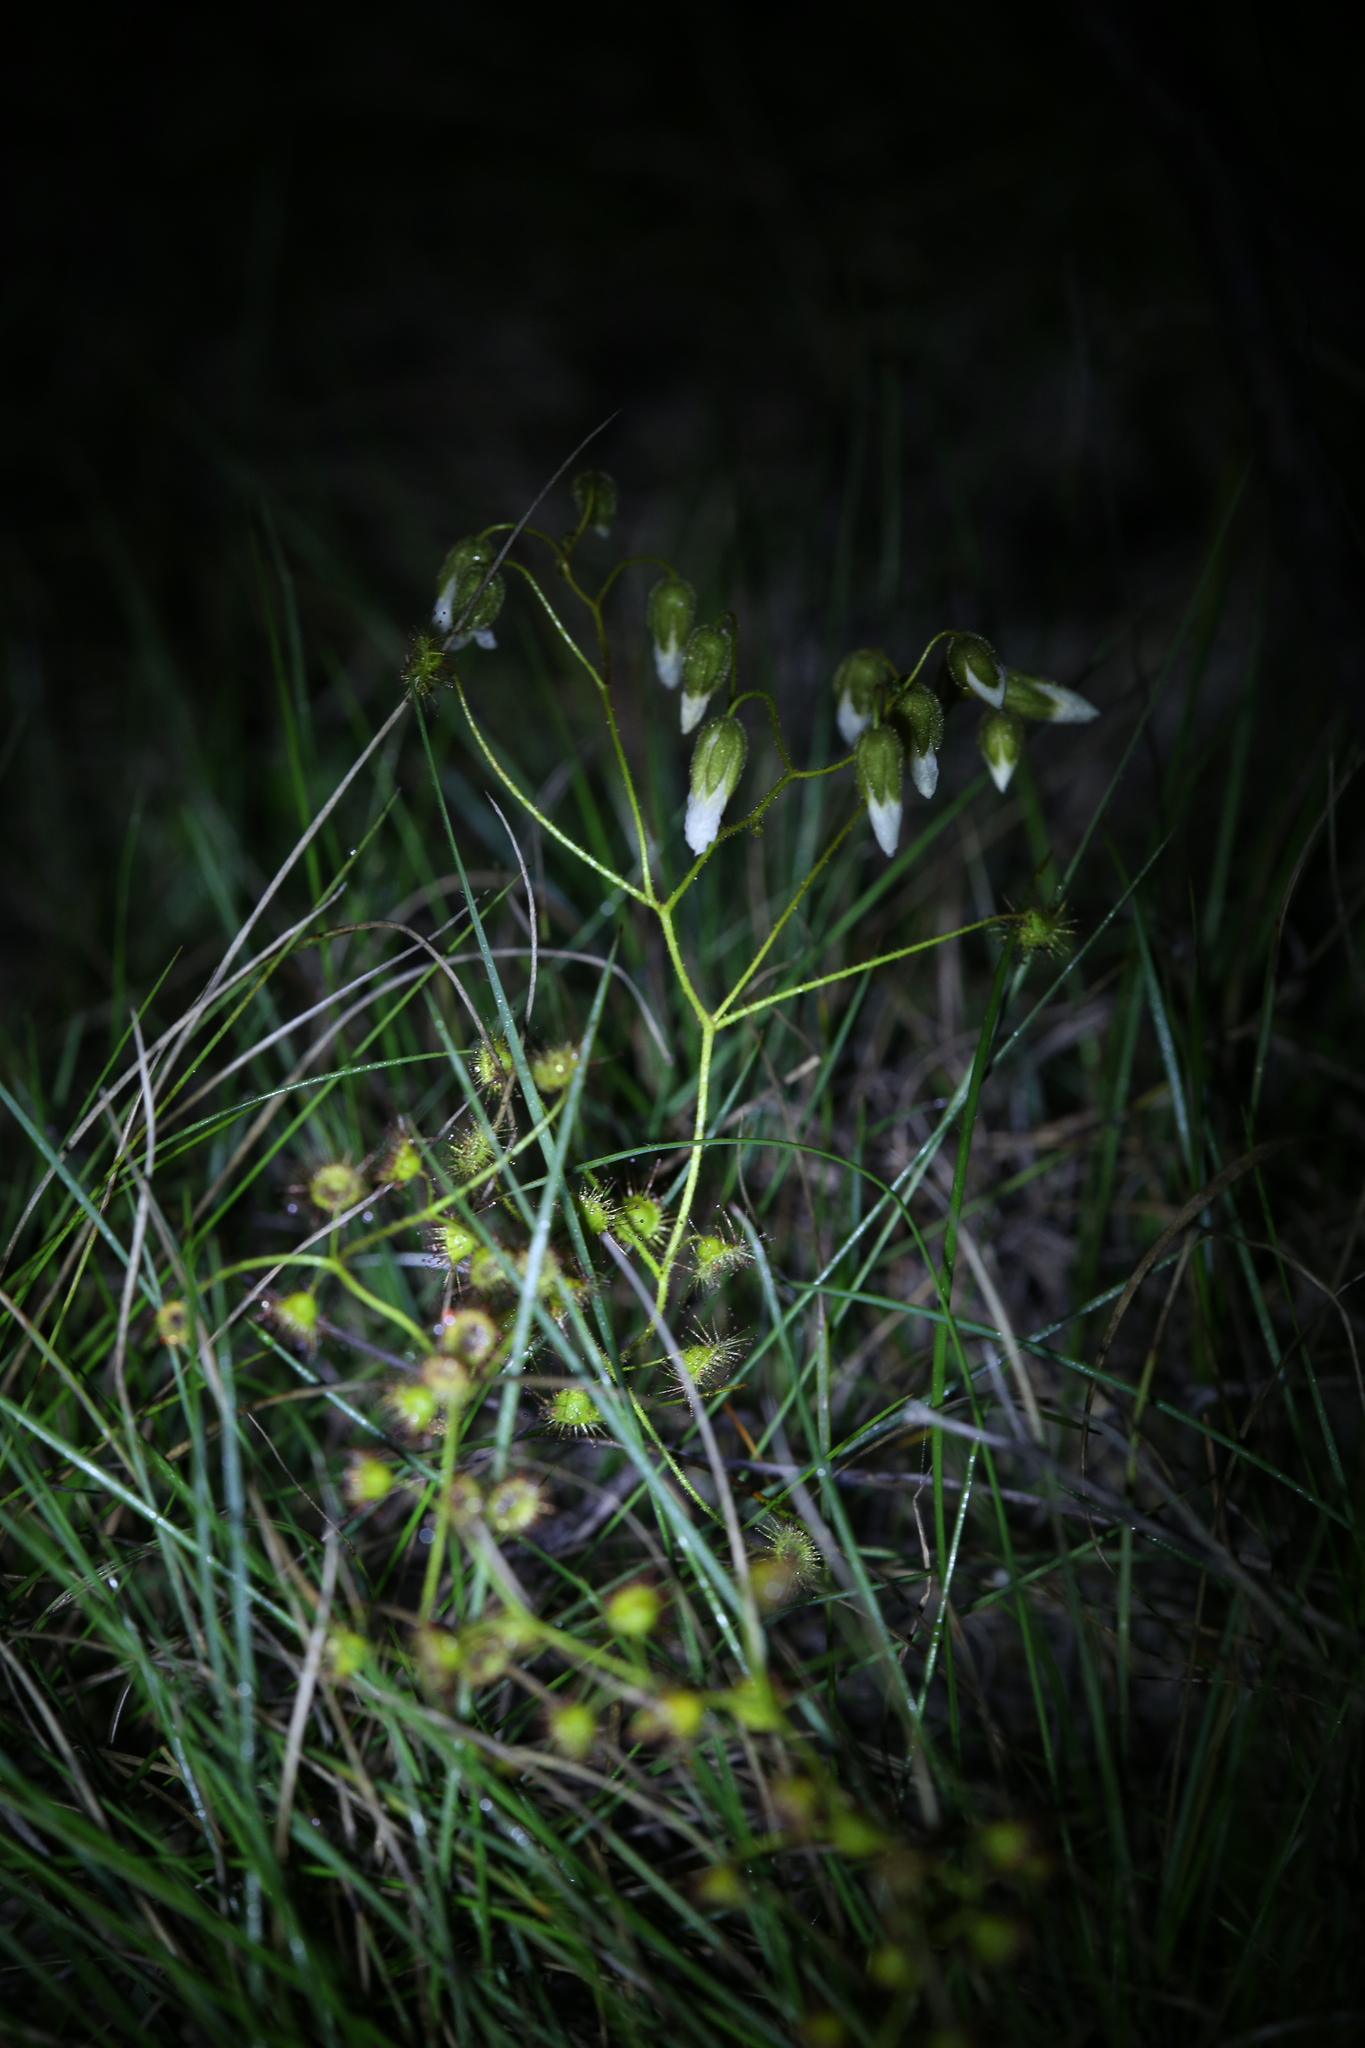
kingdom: Plantae
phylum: Tracheophyta
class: Magnoliopsida
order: Caryophyllales
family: Droseraceae
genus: Drosera
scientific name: Drosera macrantha
